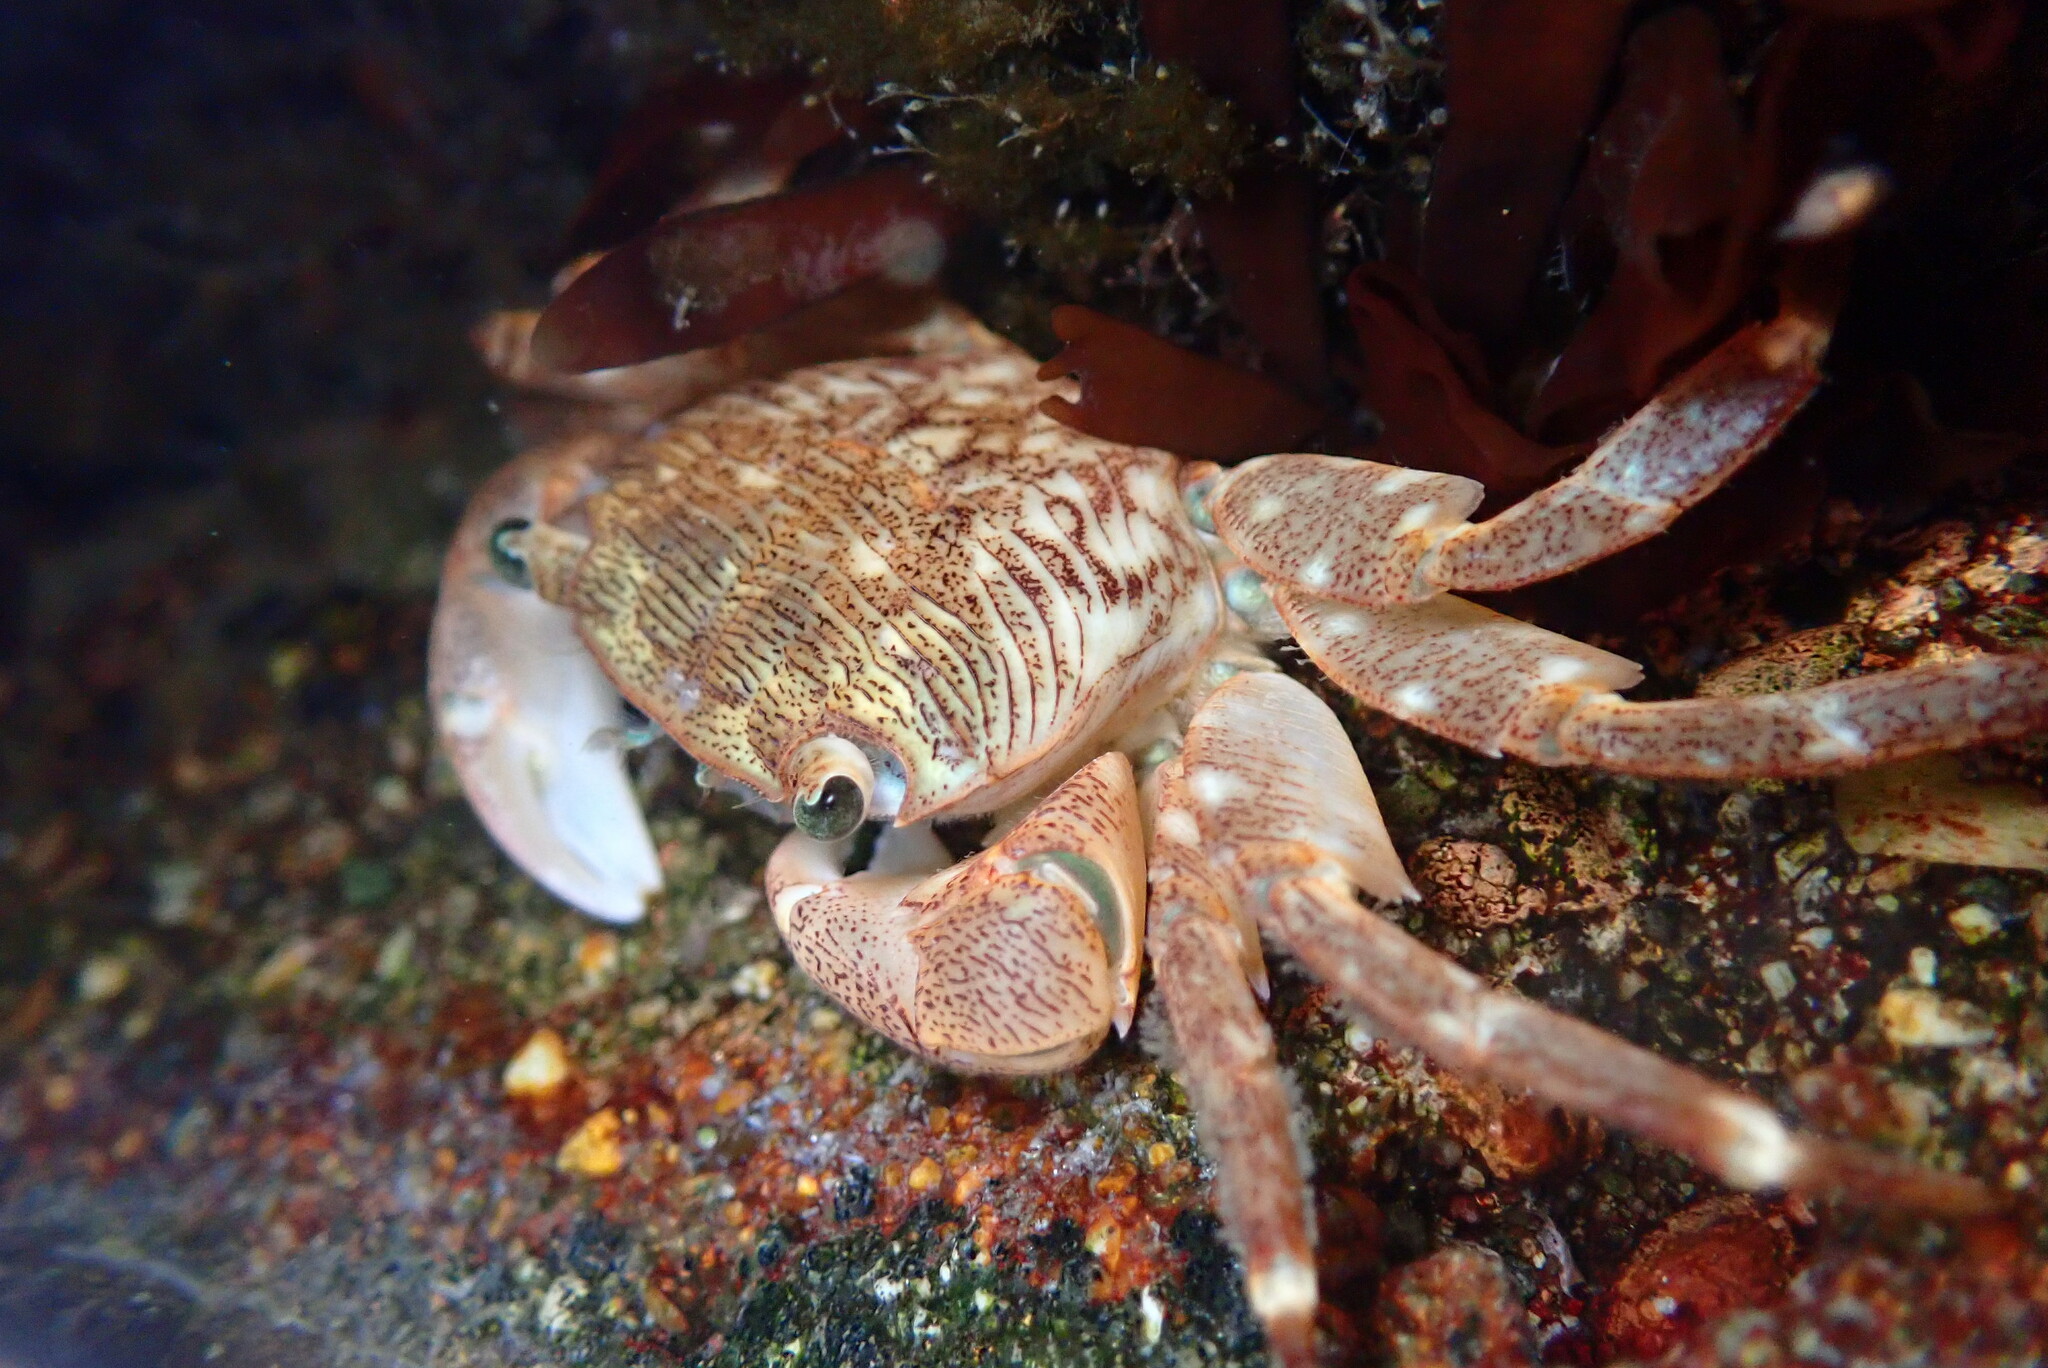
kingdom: Animalia
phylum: Arthropoda
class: Malacostraca
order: Decapoda
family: Grapsidae
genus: Pachygrapsus
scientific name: Pachygrapsus crassipes
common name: Striped shore crab
